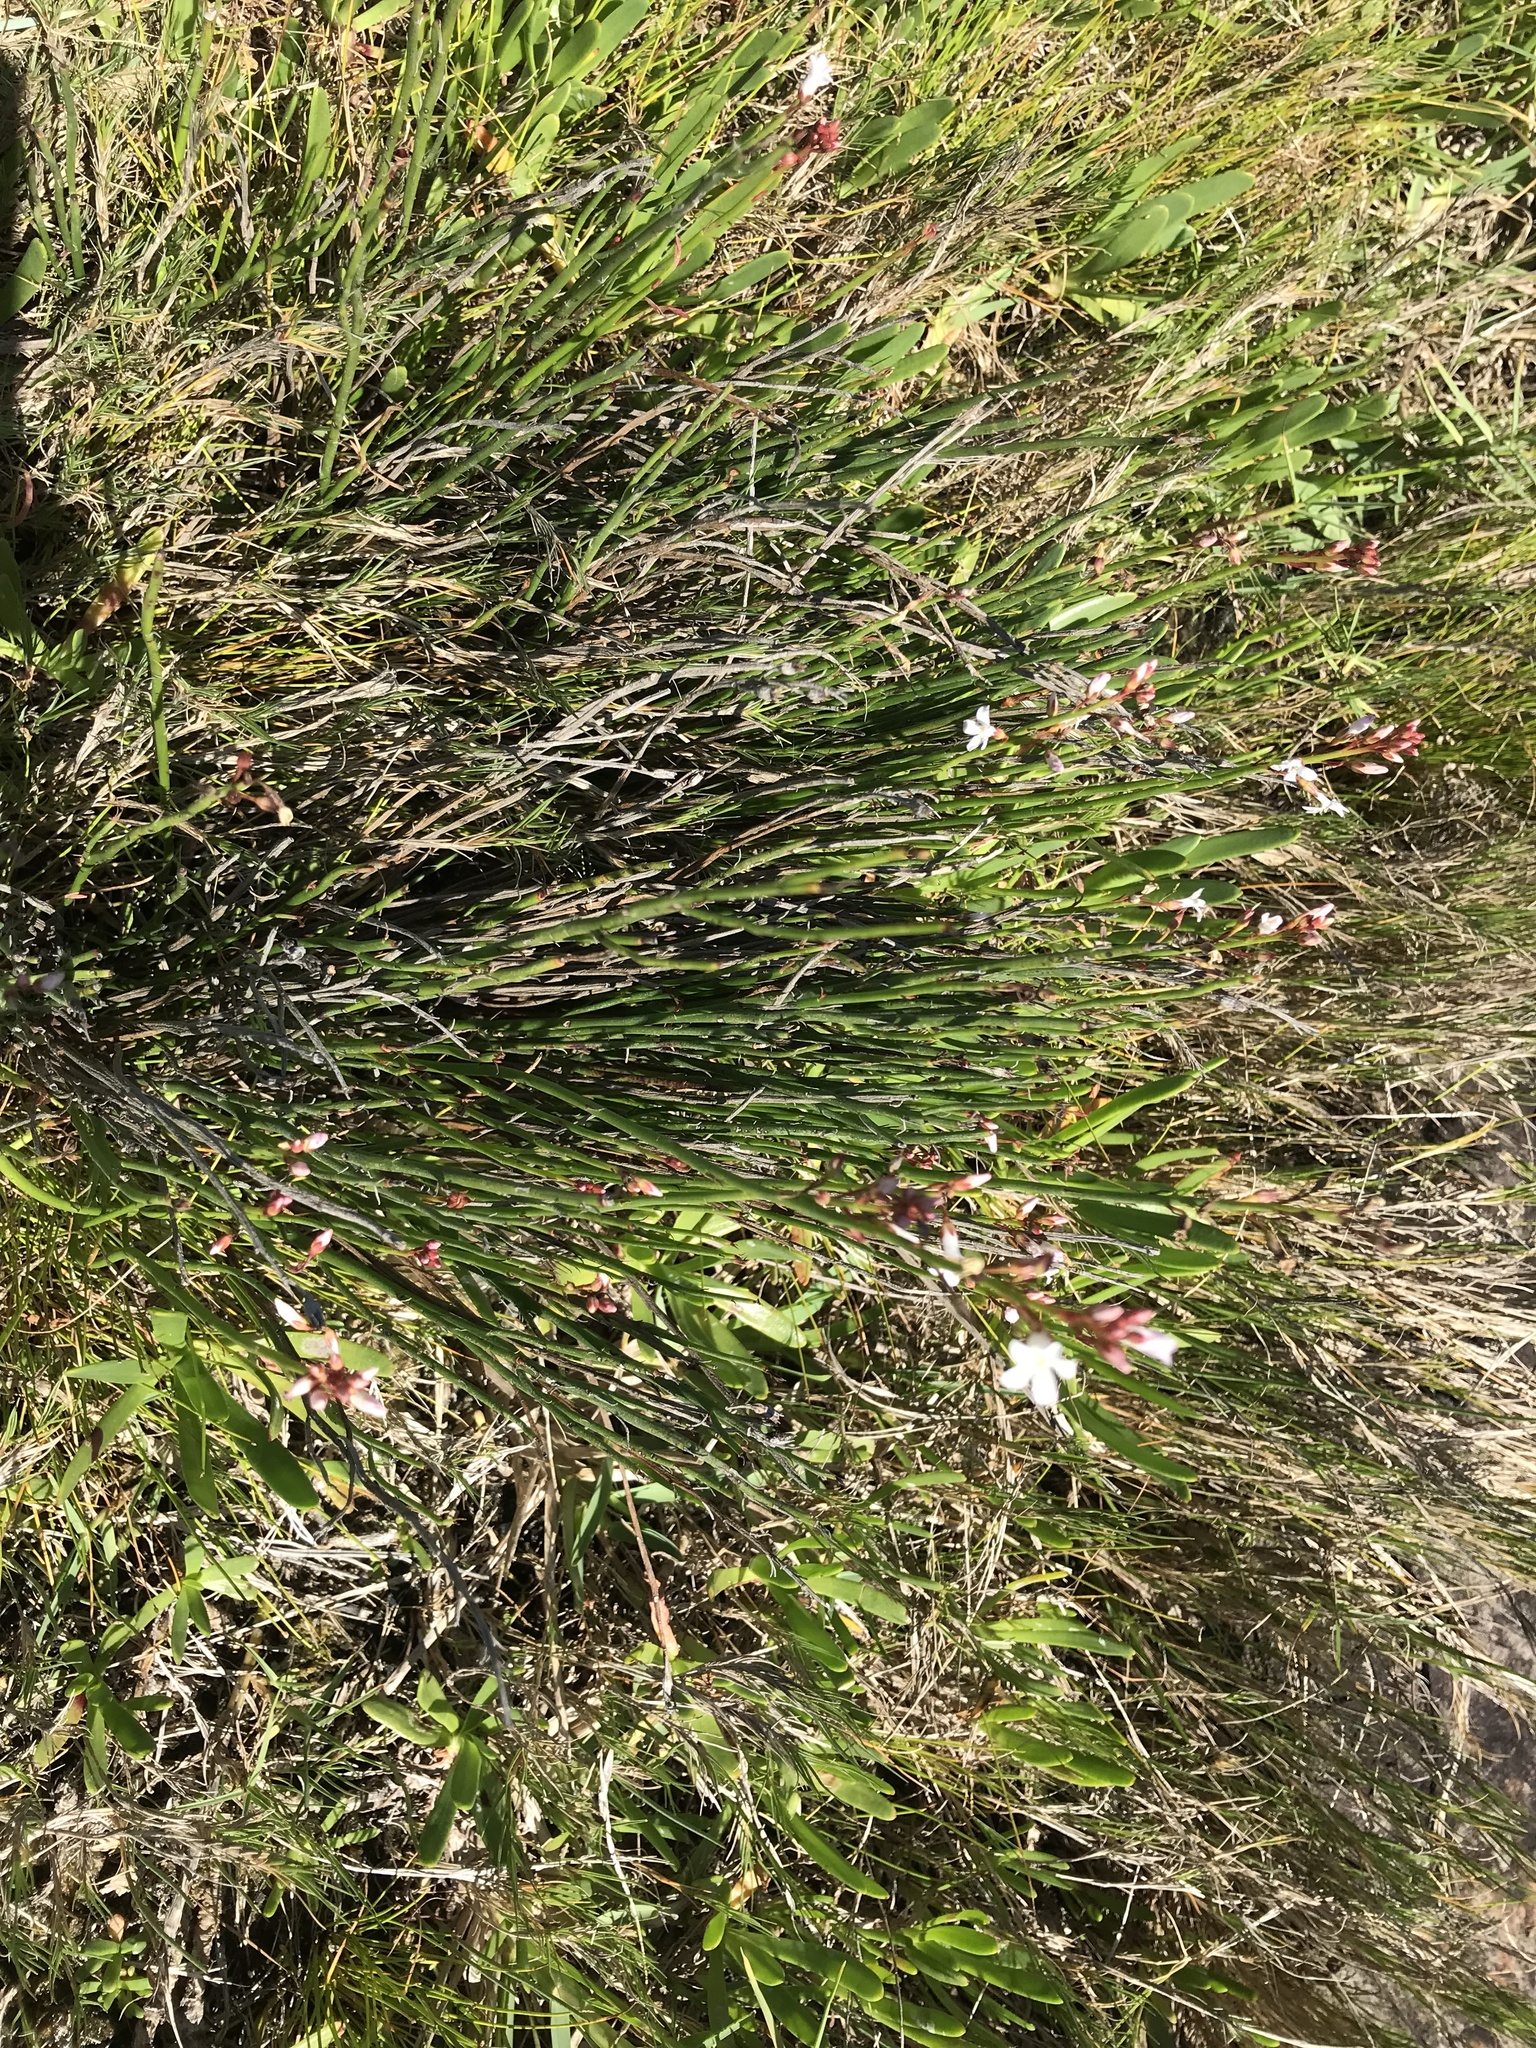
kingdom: Plantae
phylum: Tracheophyta
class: Magnoliopsida
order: Ericales
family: Primulaceae
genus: Samolus
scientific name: Samolus porosus
